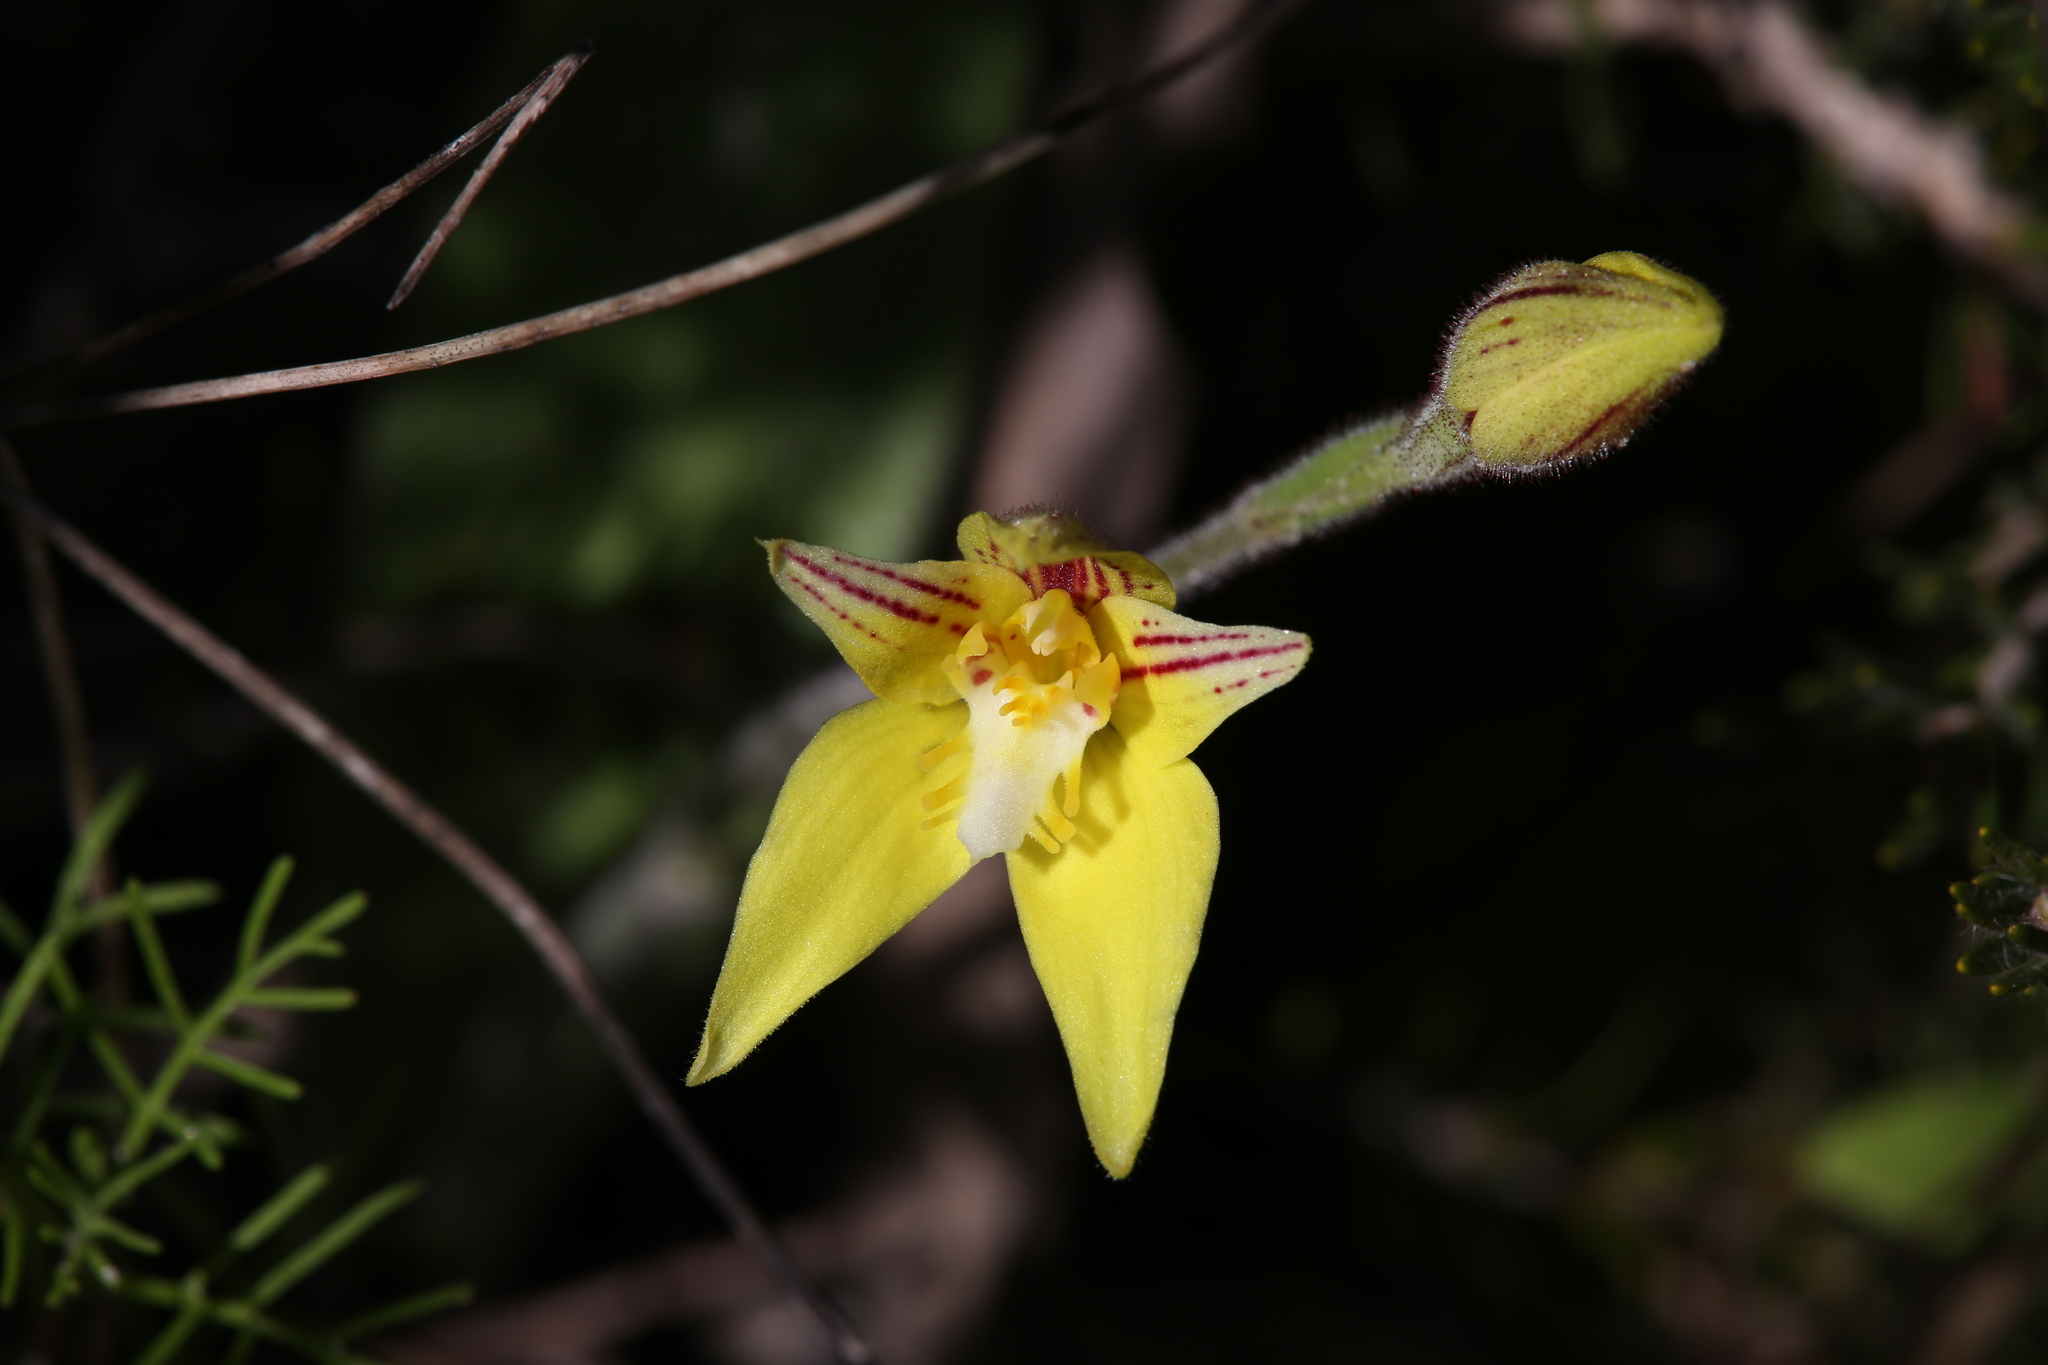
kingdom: Plantae
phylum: Tracheophyta
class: Liliopsida
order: Asparagales
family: Orchidaceae
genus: Caladenia
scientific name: Caladenia flava
